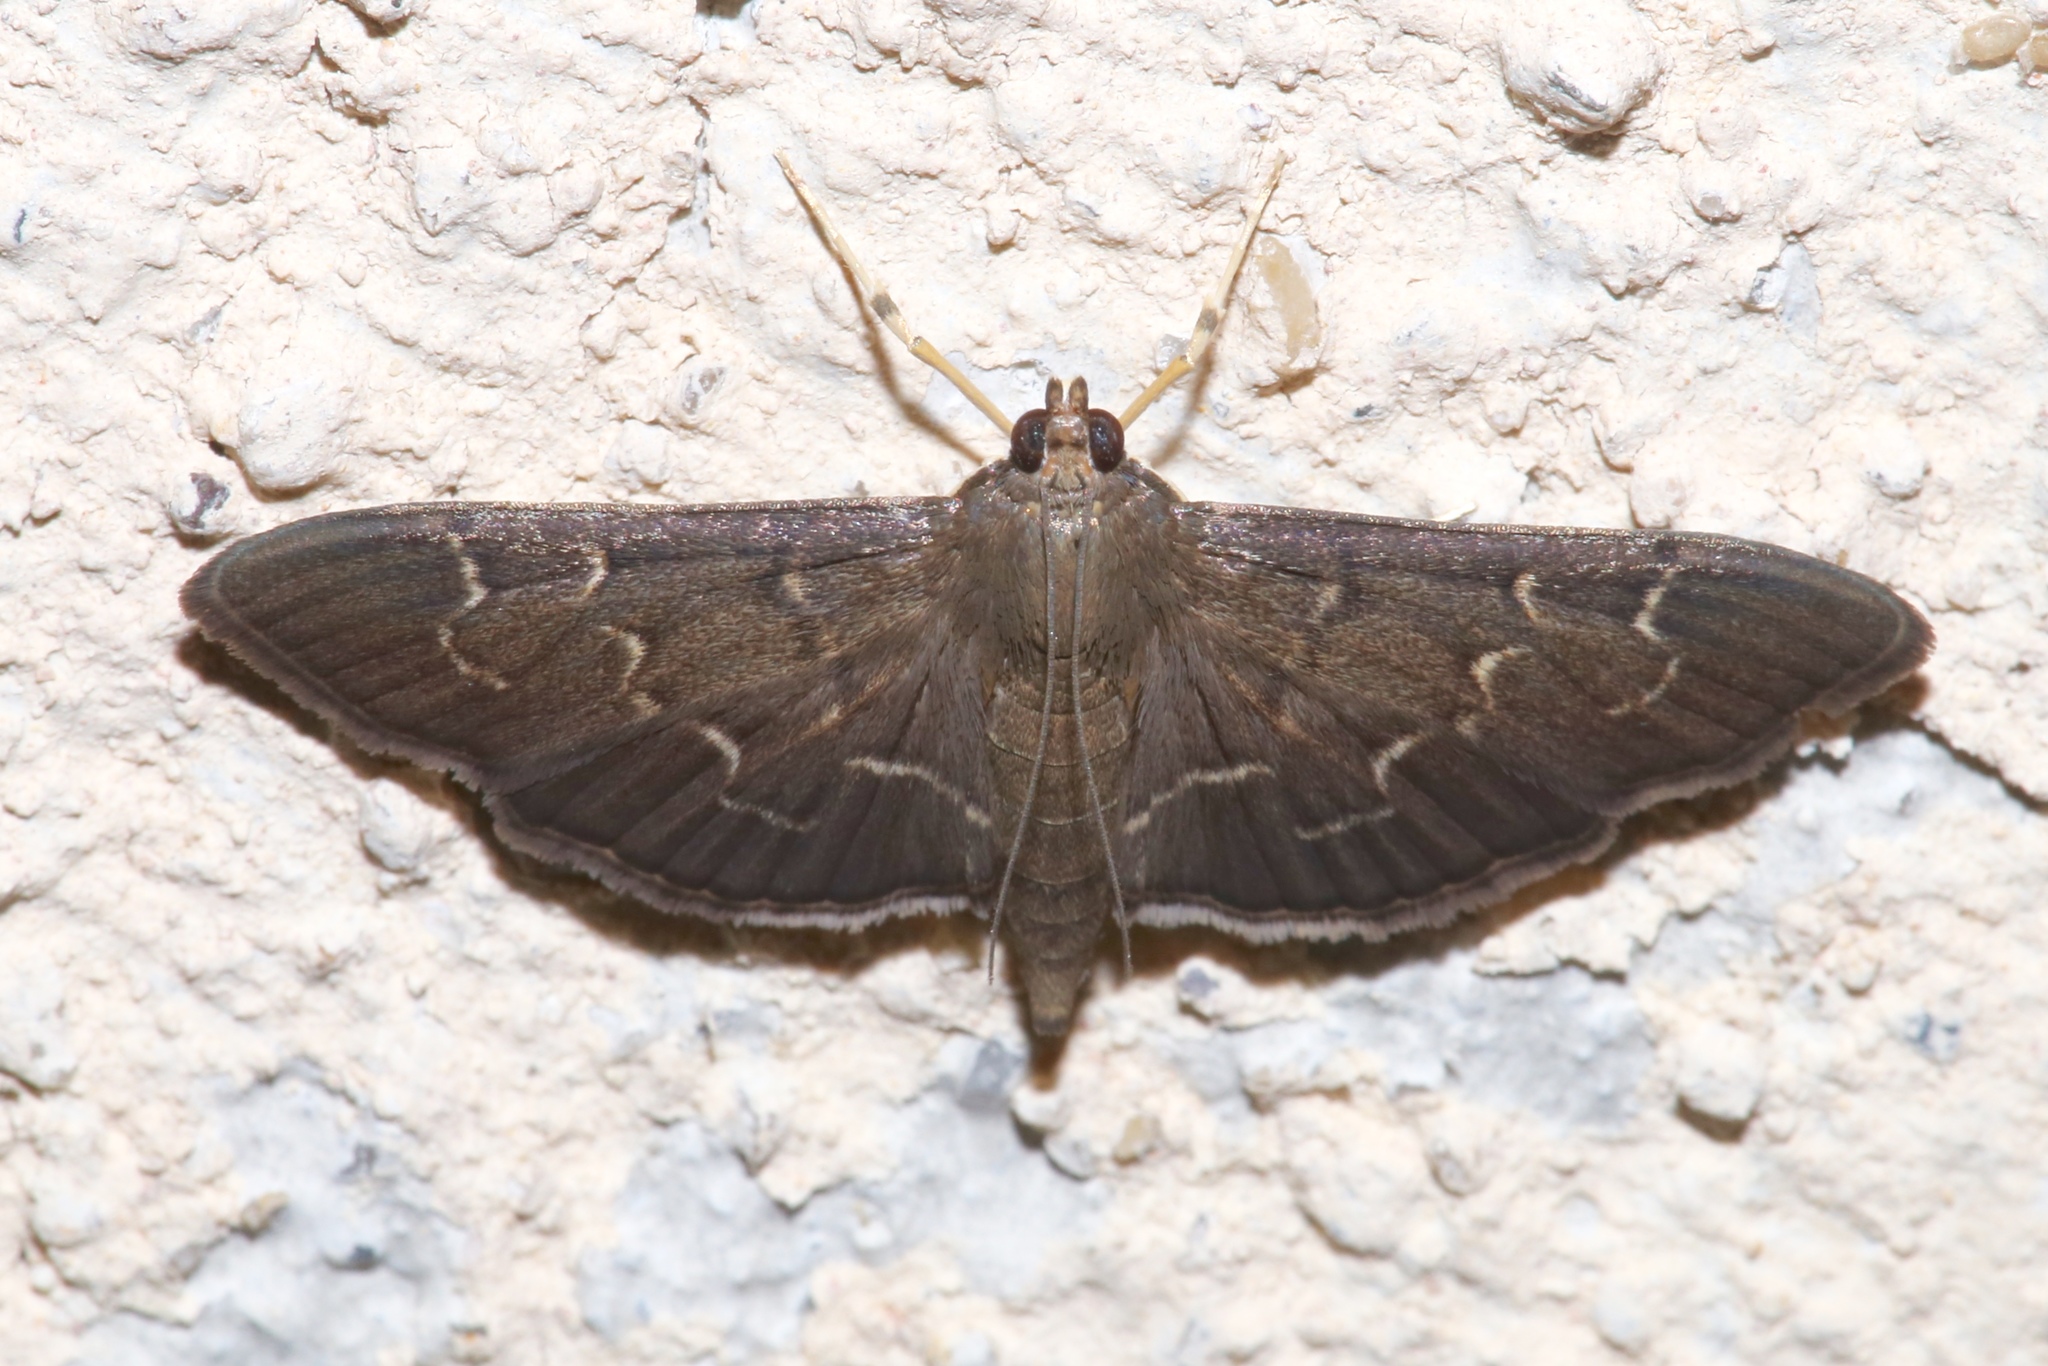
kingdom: Animalia
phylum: Arthropoda
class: Insecta
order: Lepidoptera
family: Crambidae
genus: Pilocrocis
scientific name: Pilocrocis ramentalis
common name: Scraped pilocrocis
